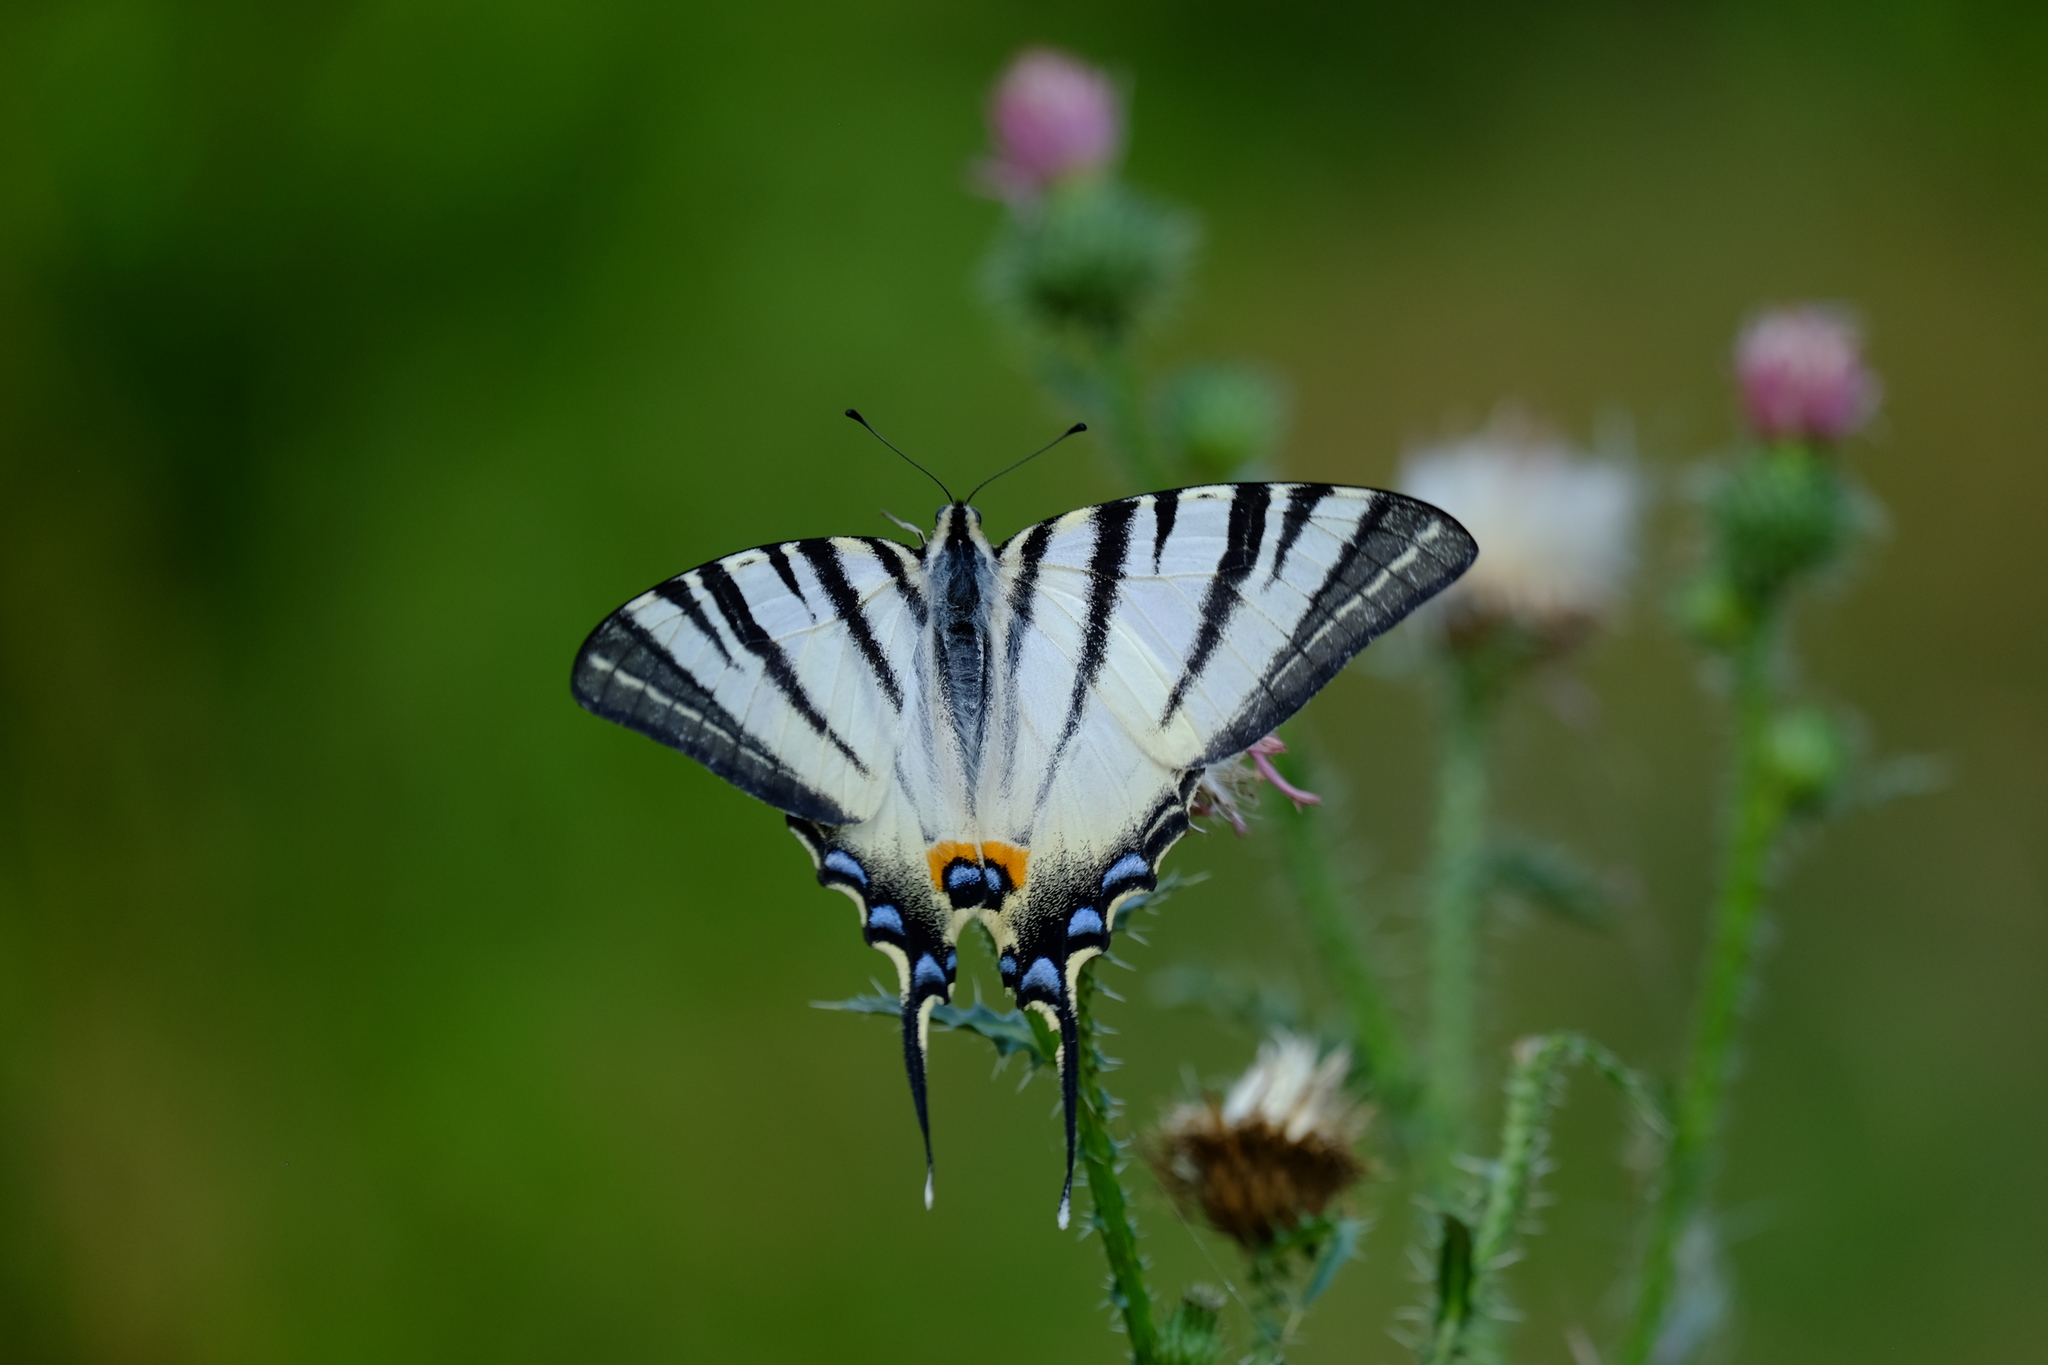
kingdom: Animalia
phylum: Arthropoda
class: Insecta
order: Lepidoptera
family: Papilionidae
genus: Iphiclides
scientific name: Iphiclides podalirius
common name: Scarce swallowtail
